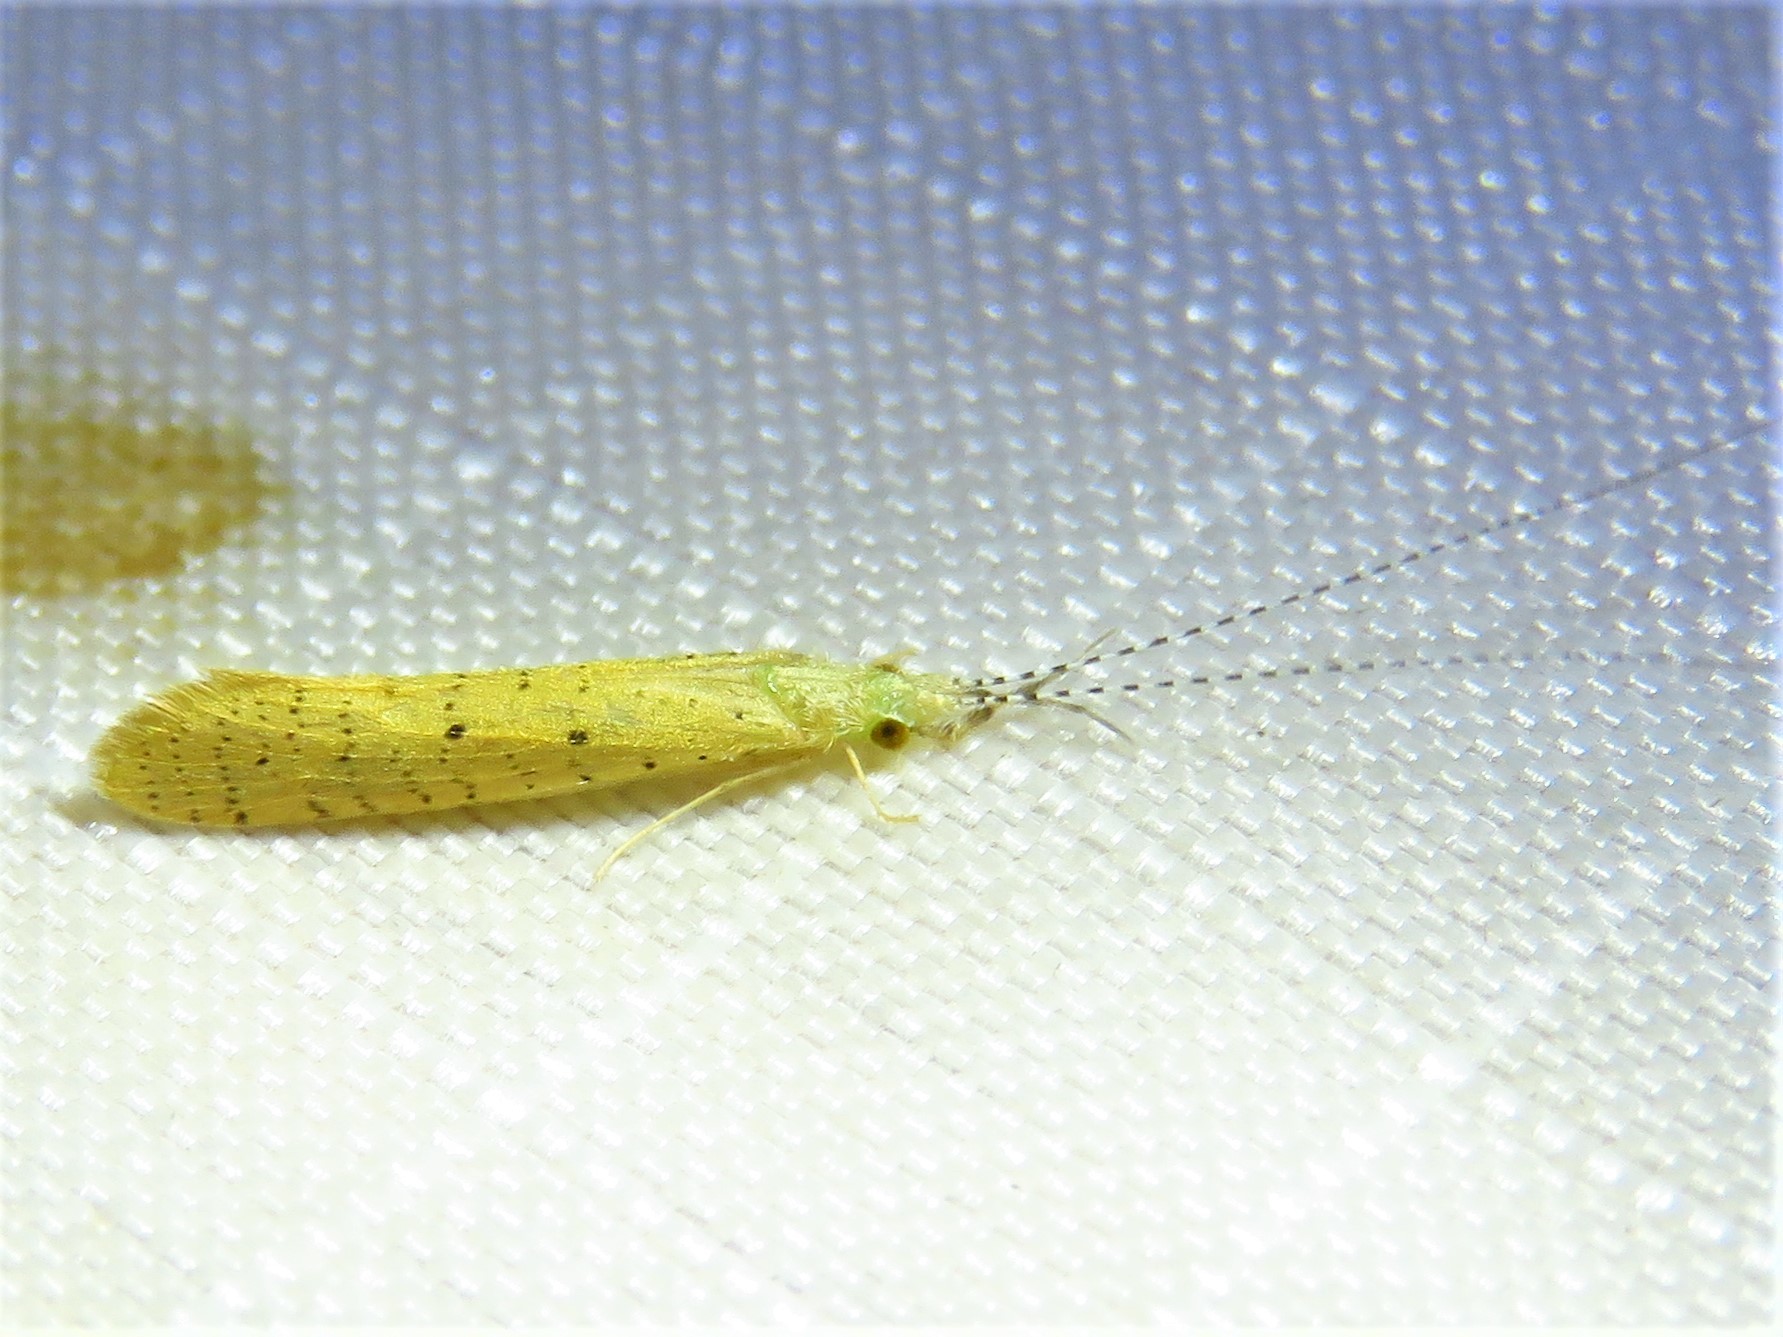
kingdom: Animalia
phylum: Arthropoda
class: Insecta
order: Trichoptera
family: Leptoceridae
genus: Nectopsyche
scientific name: Nectopsyche pavida
